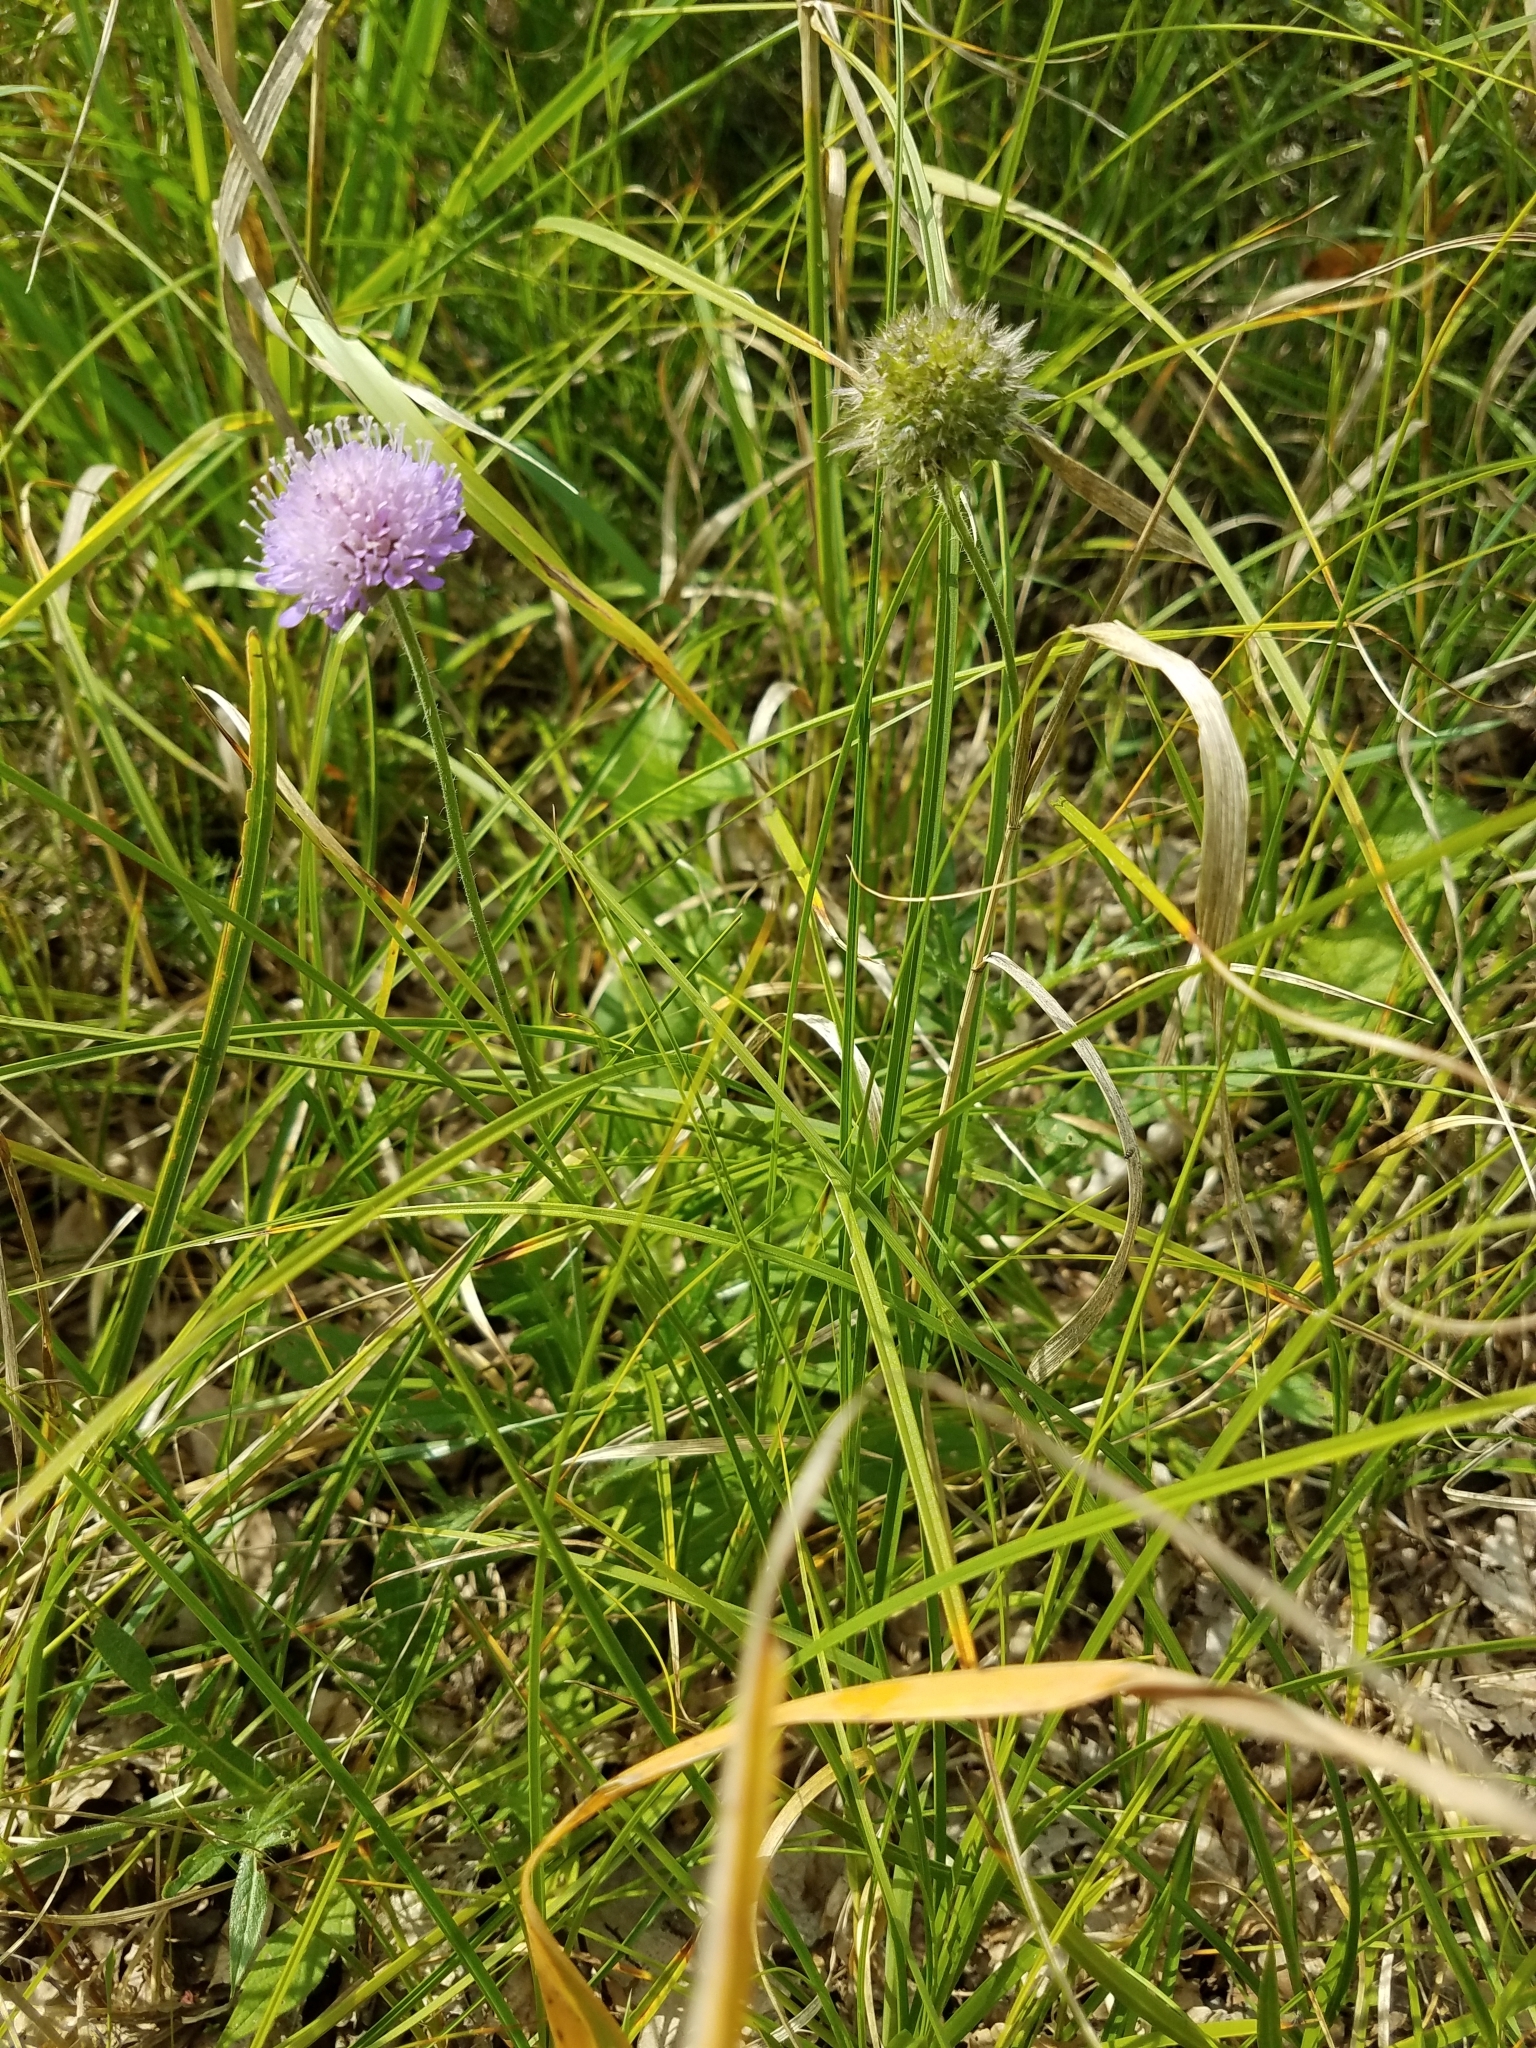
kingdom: Plantae
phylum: Tracheophyta
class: Magnoliopsida
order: Dipsacales
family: Caprifoliaceae
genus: Knautia
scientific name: Knautia arvensis
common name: Field scabiosa
